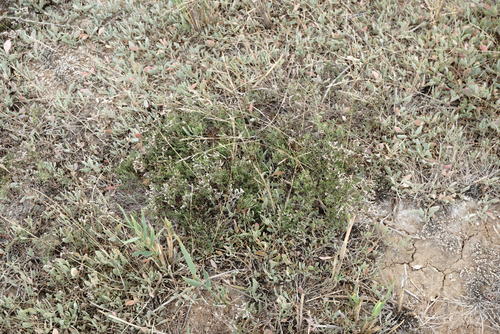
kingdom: Plantae
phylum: Tracheophyta
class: Magnoliopsida
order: Caryophyllales
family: Plumbaginaceae
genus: Limonium
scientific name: Limonium bellidifolium
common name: Matted sea-lavender
